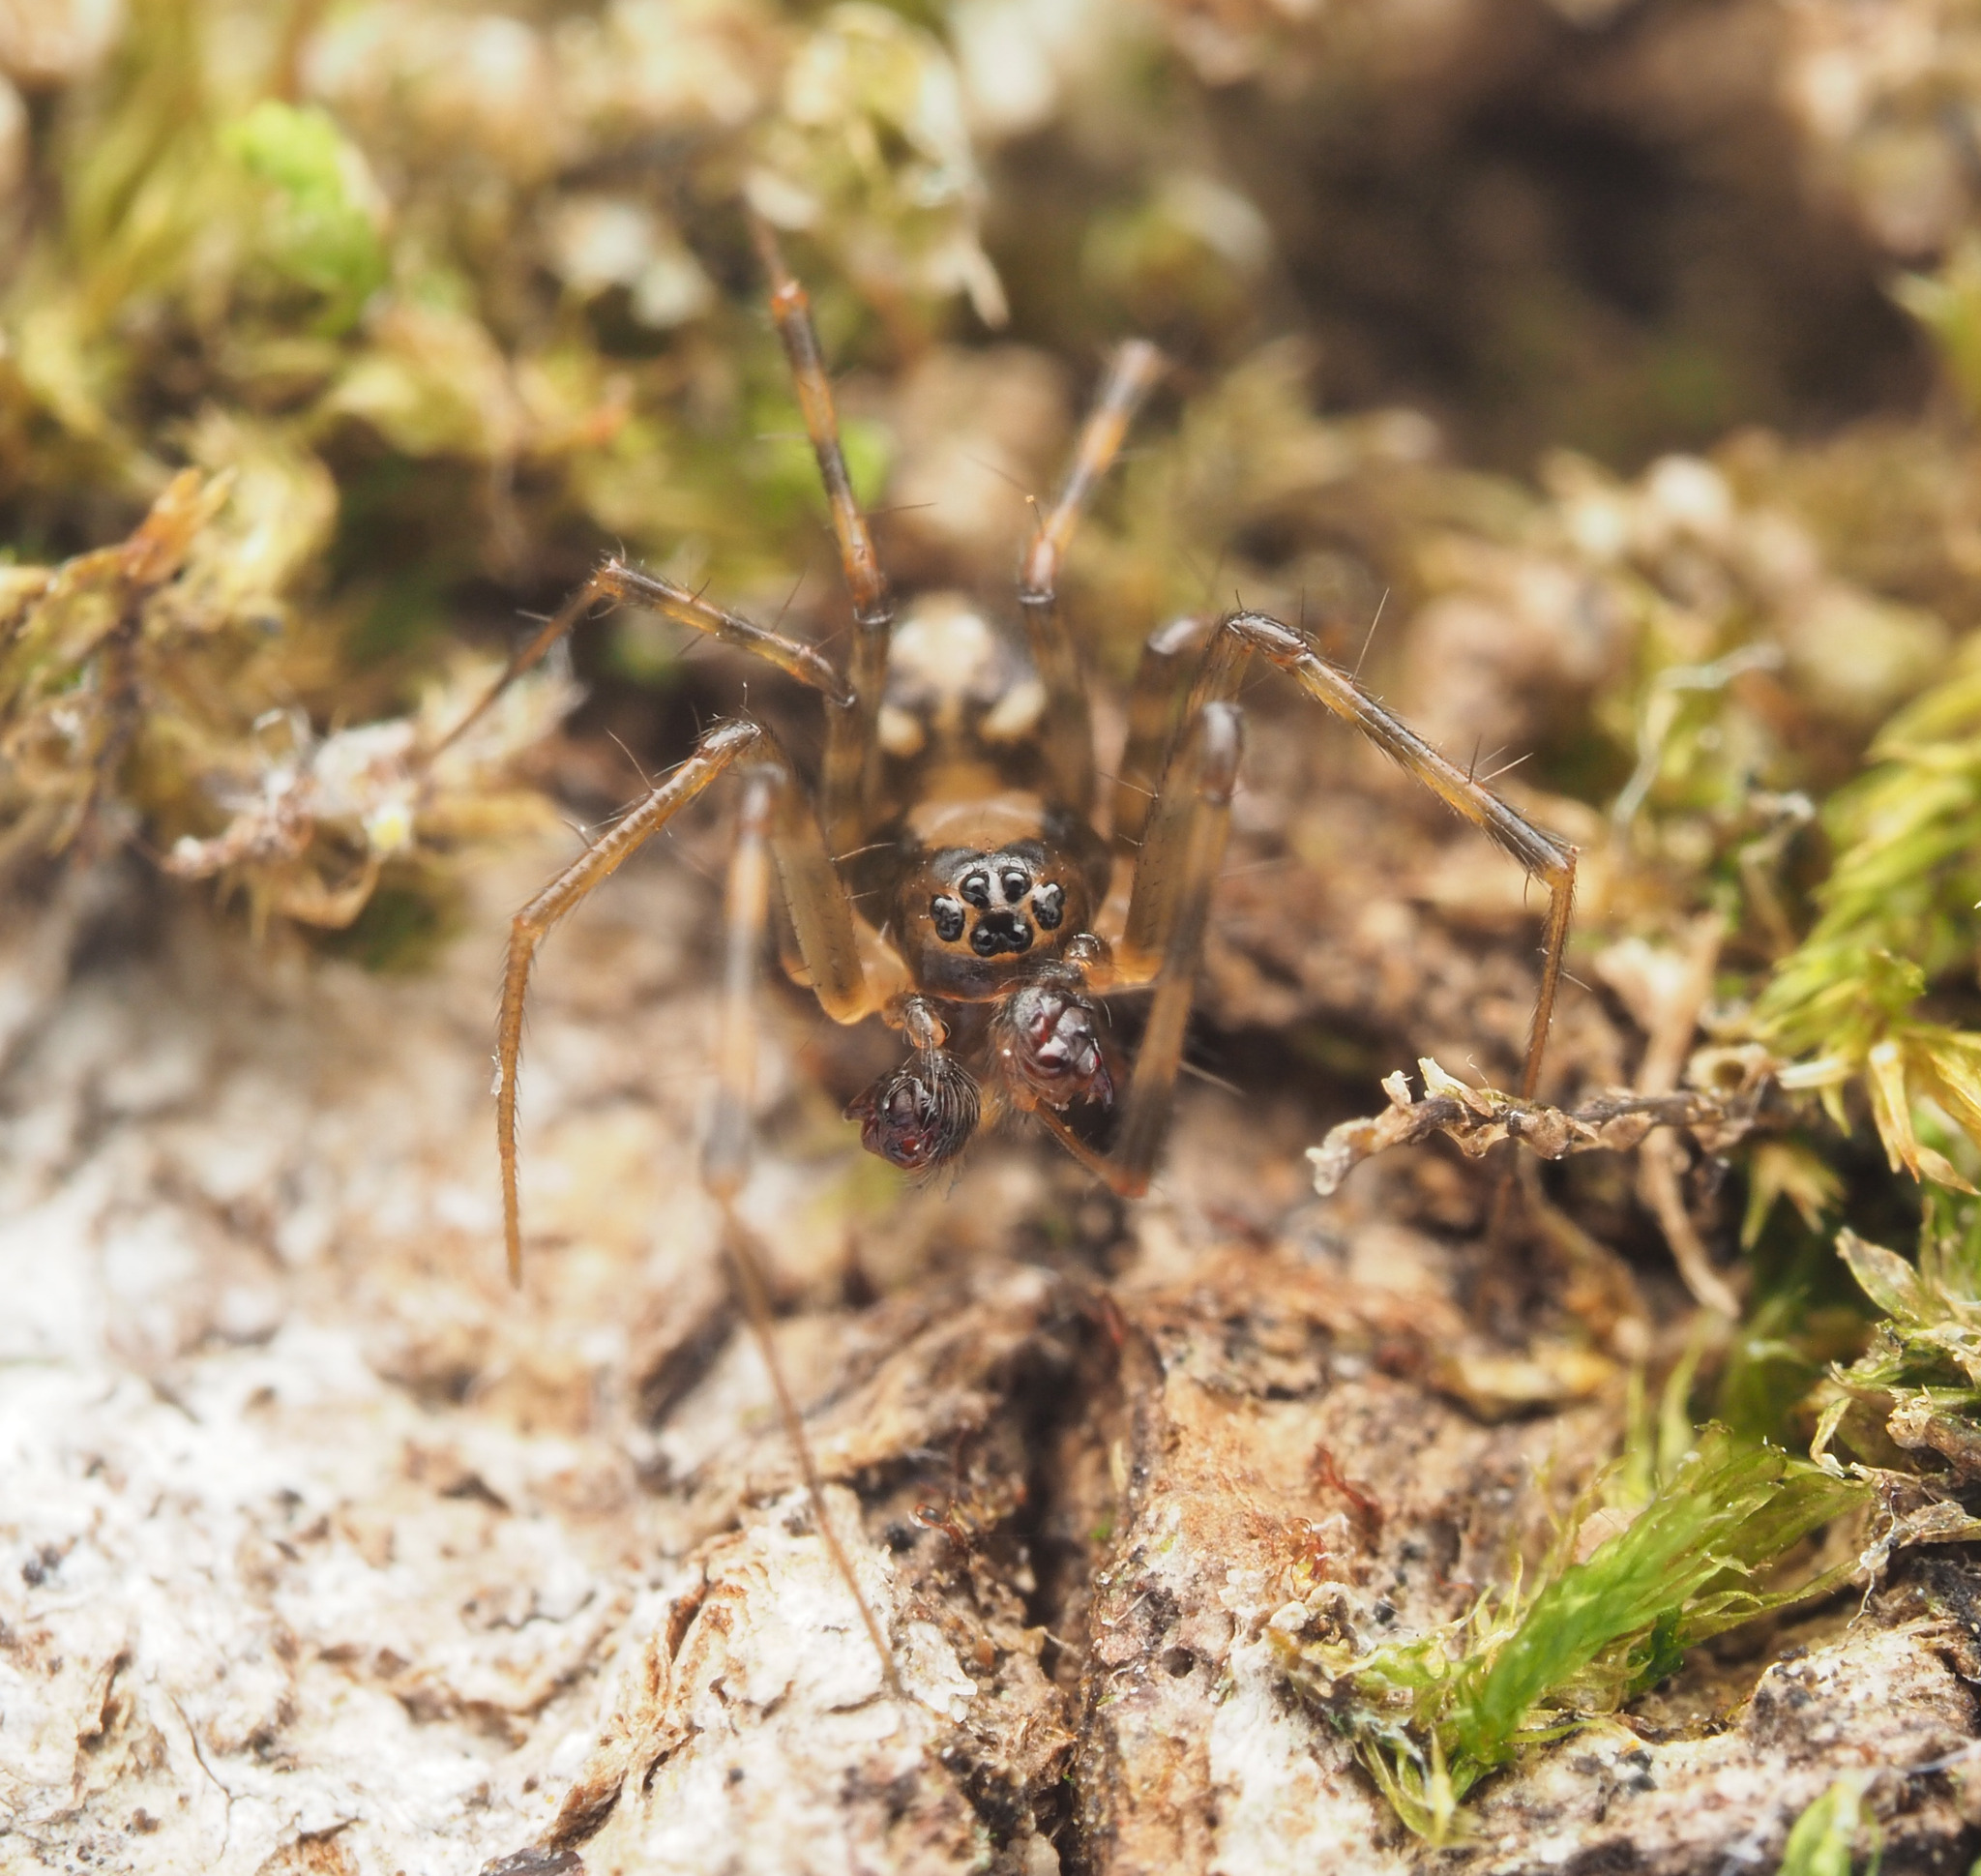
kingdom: Animalia
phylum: Arthropoda
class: Arachnida
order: Araneae
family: Linyphiidae
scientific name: Linyphiidae
